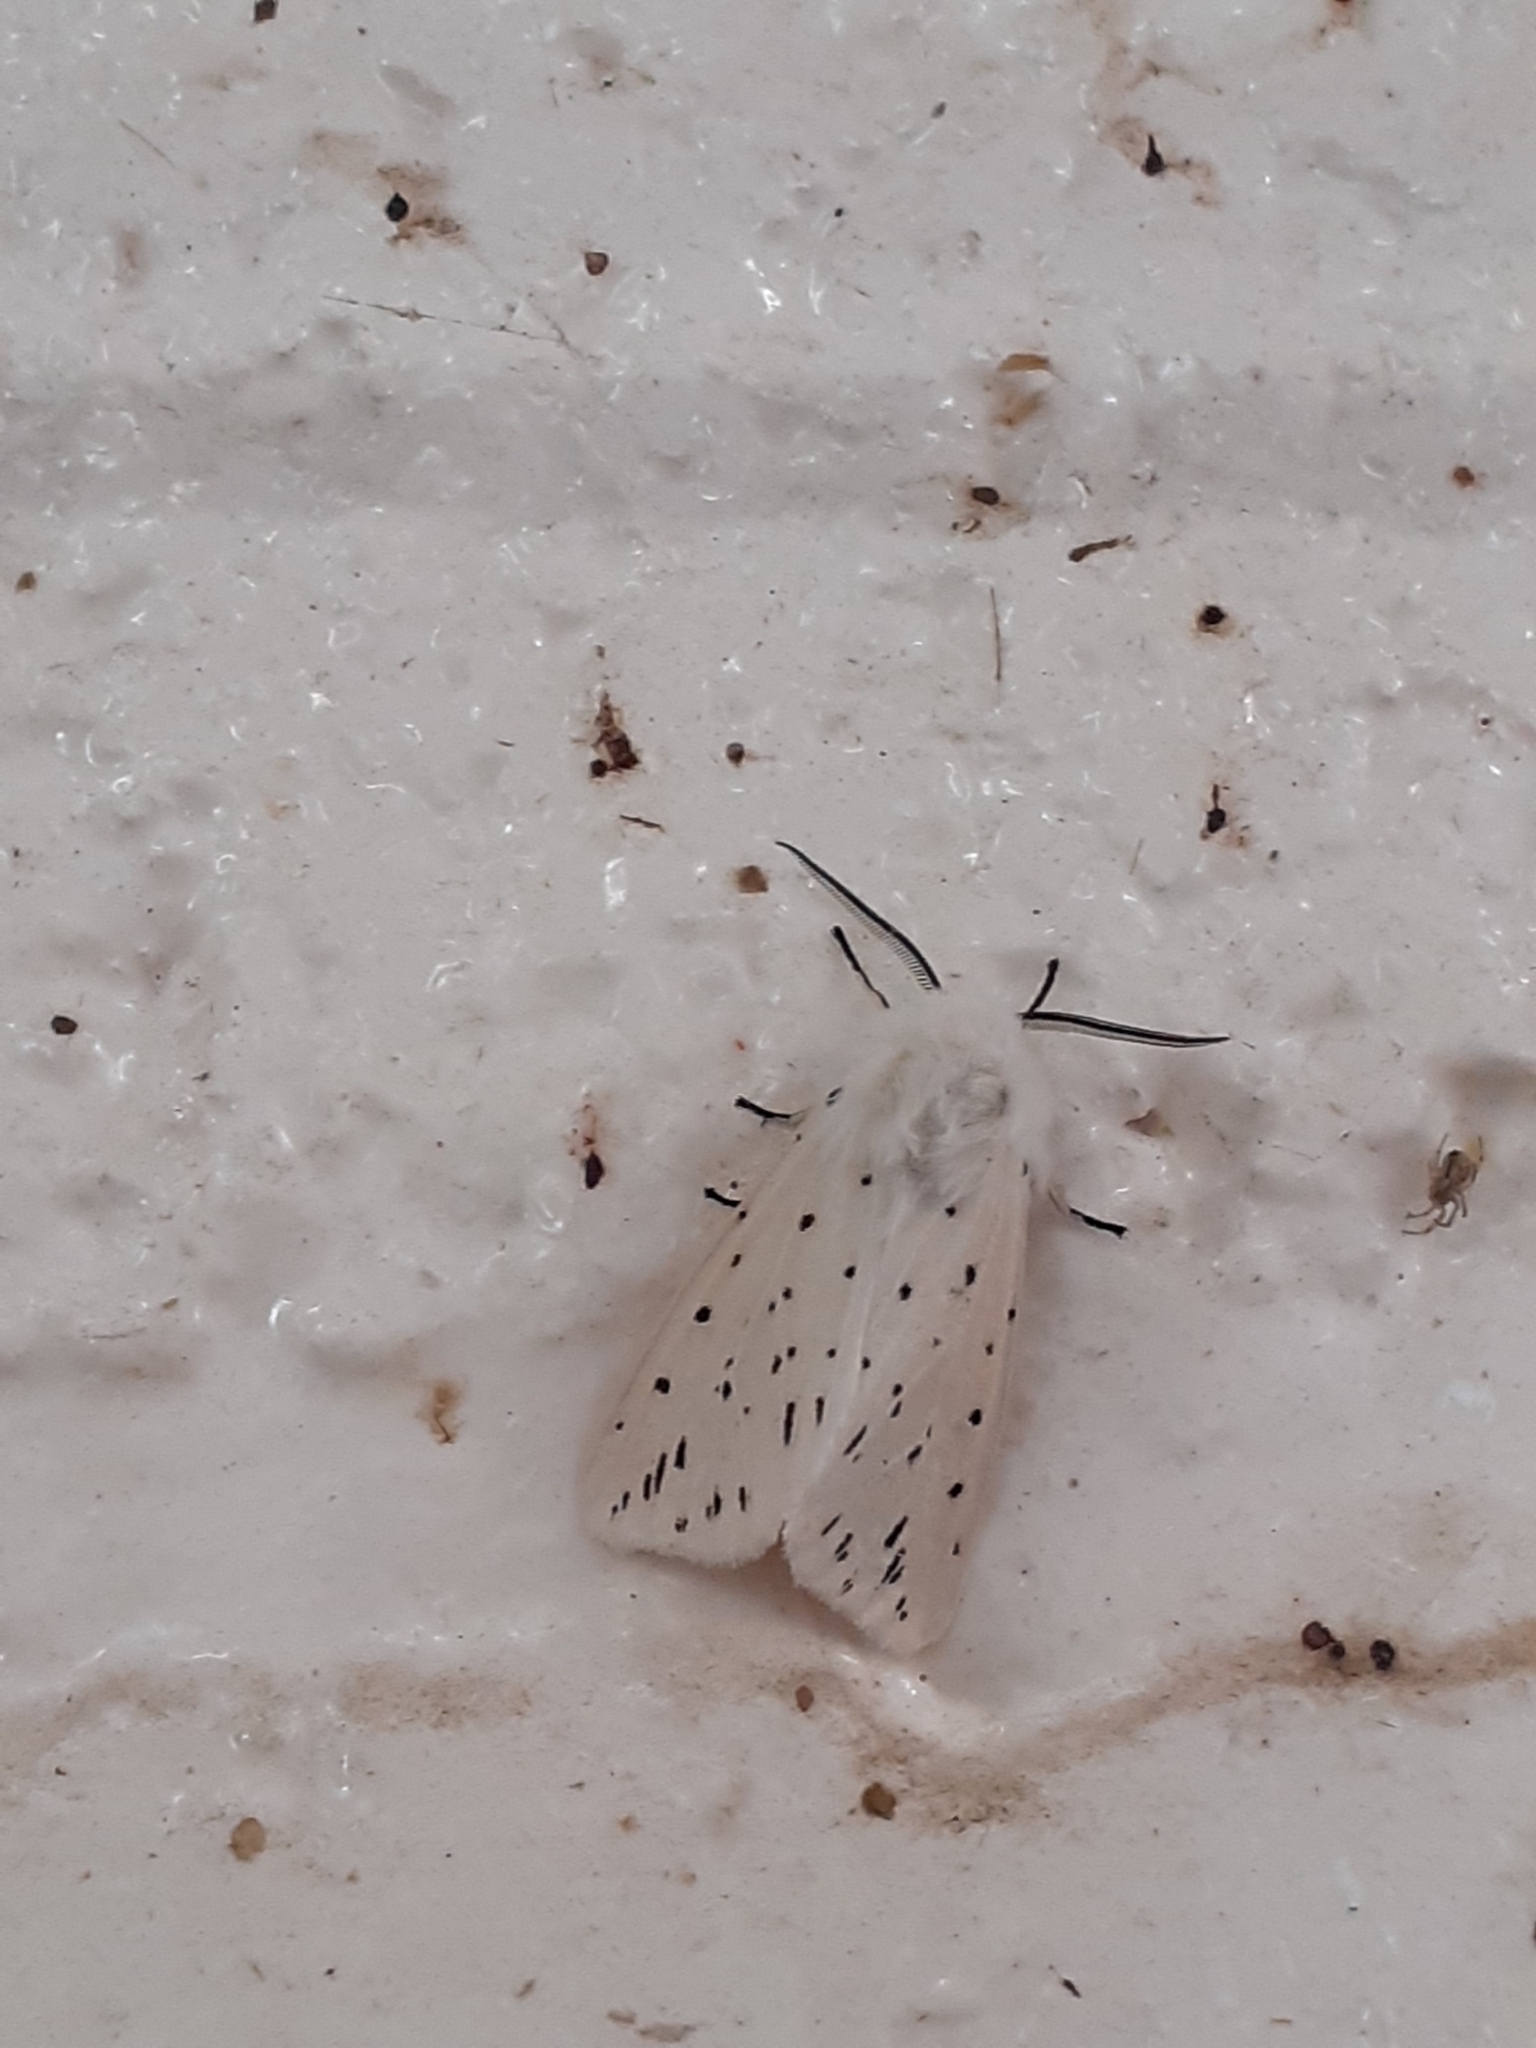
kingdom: Animalia
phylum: Arthropoda
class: Insecta
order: Lepidoptera
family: Erebidae
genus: Spilosoma
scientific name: Spilosoma lubricipeda
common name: White ermine
